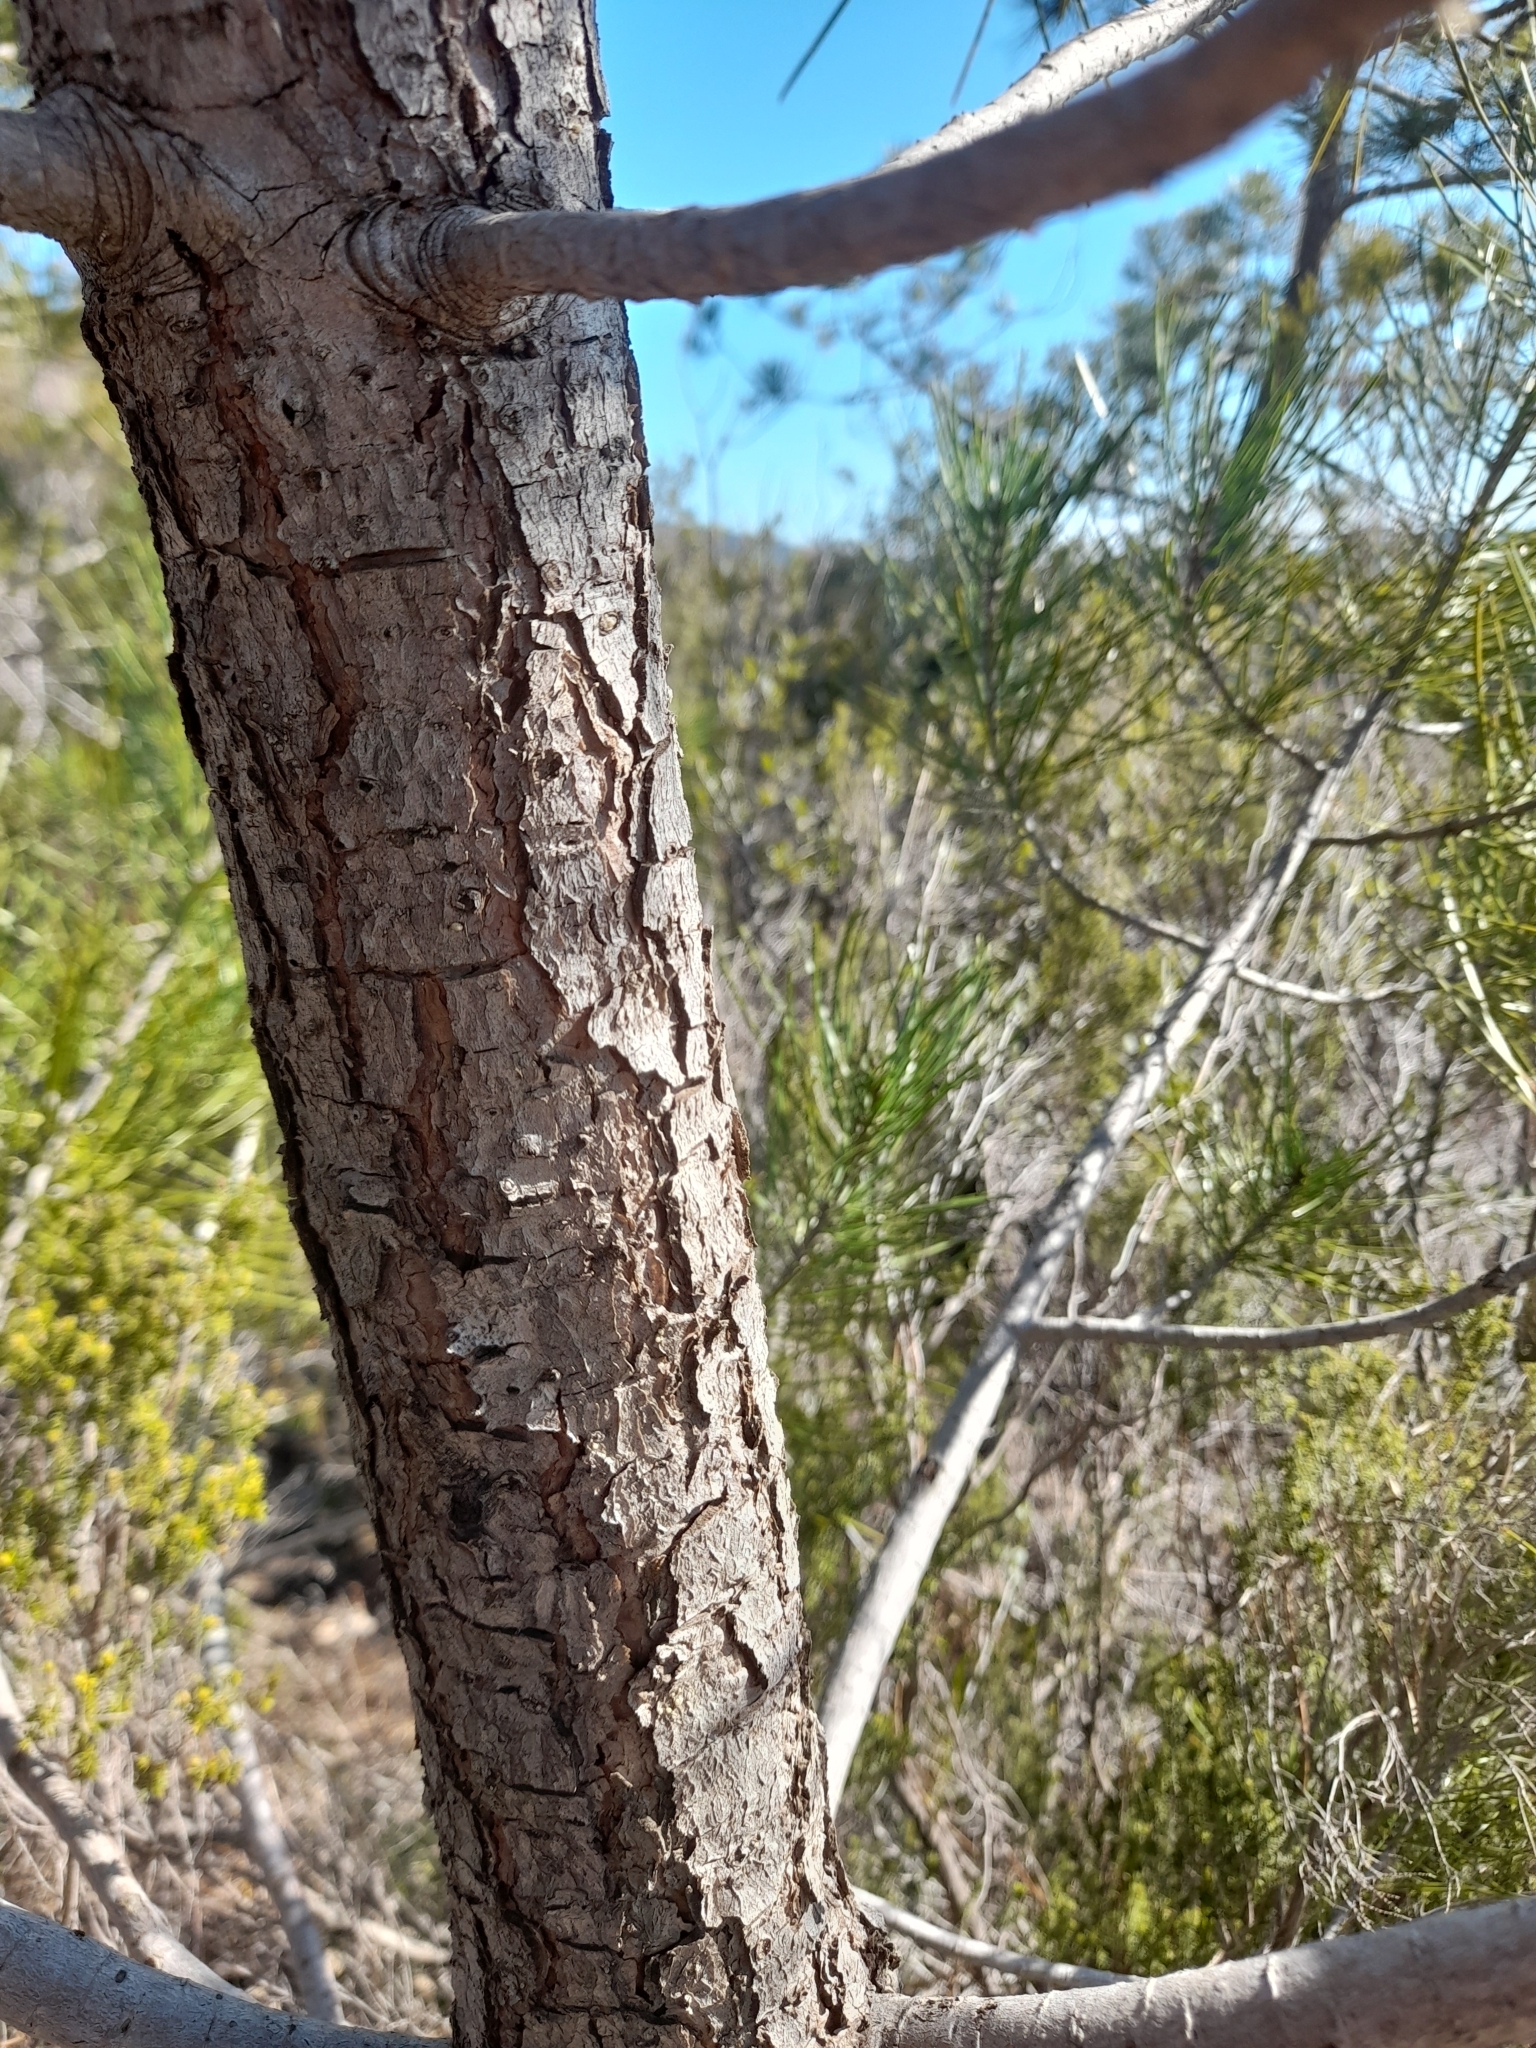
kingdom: Plantae
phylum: Tracheophyta
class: Pinopsida
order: Pinales
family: Pinaceae
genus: Pinus
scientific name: Pinus pinaster
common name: Maritime pine
